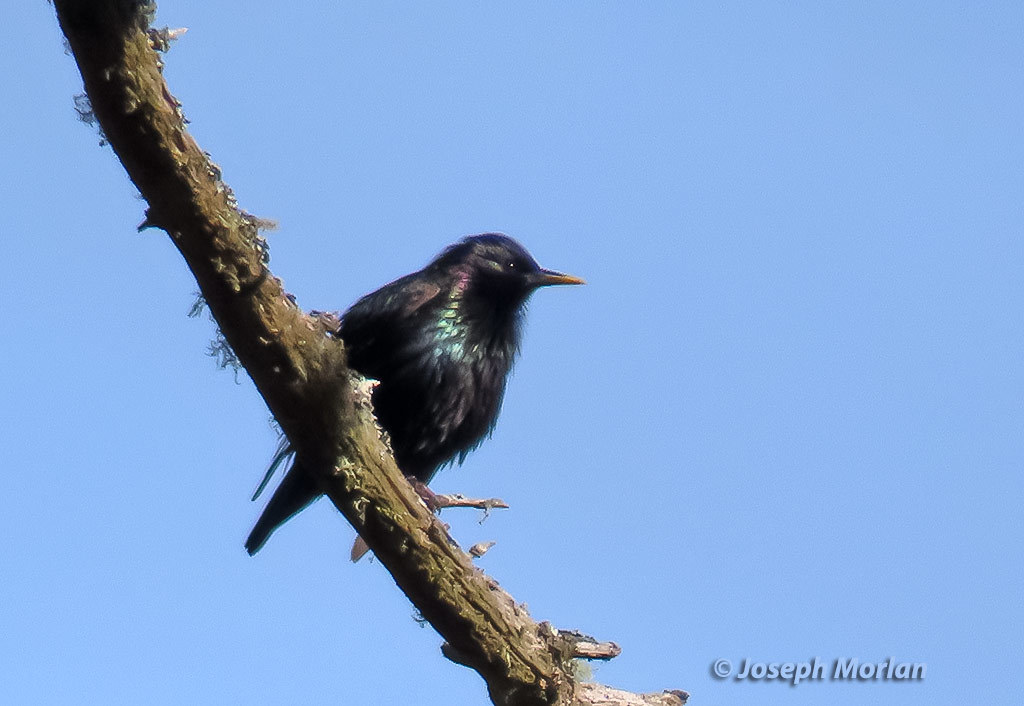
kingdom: Animalia
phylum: Chordata
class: Aves
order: Passeriformes
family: Sturnidae
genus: Sturnus
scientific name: Sturnus vulgaris
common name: Common starling
